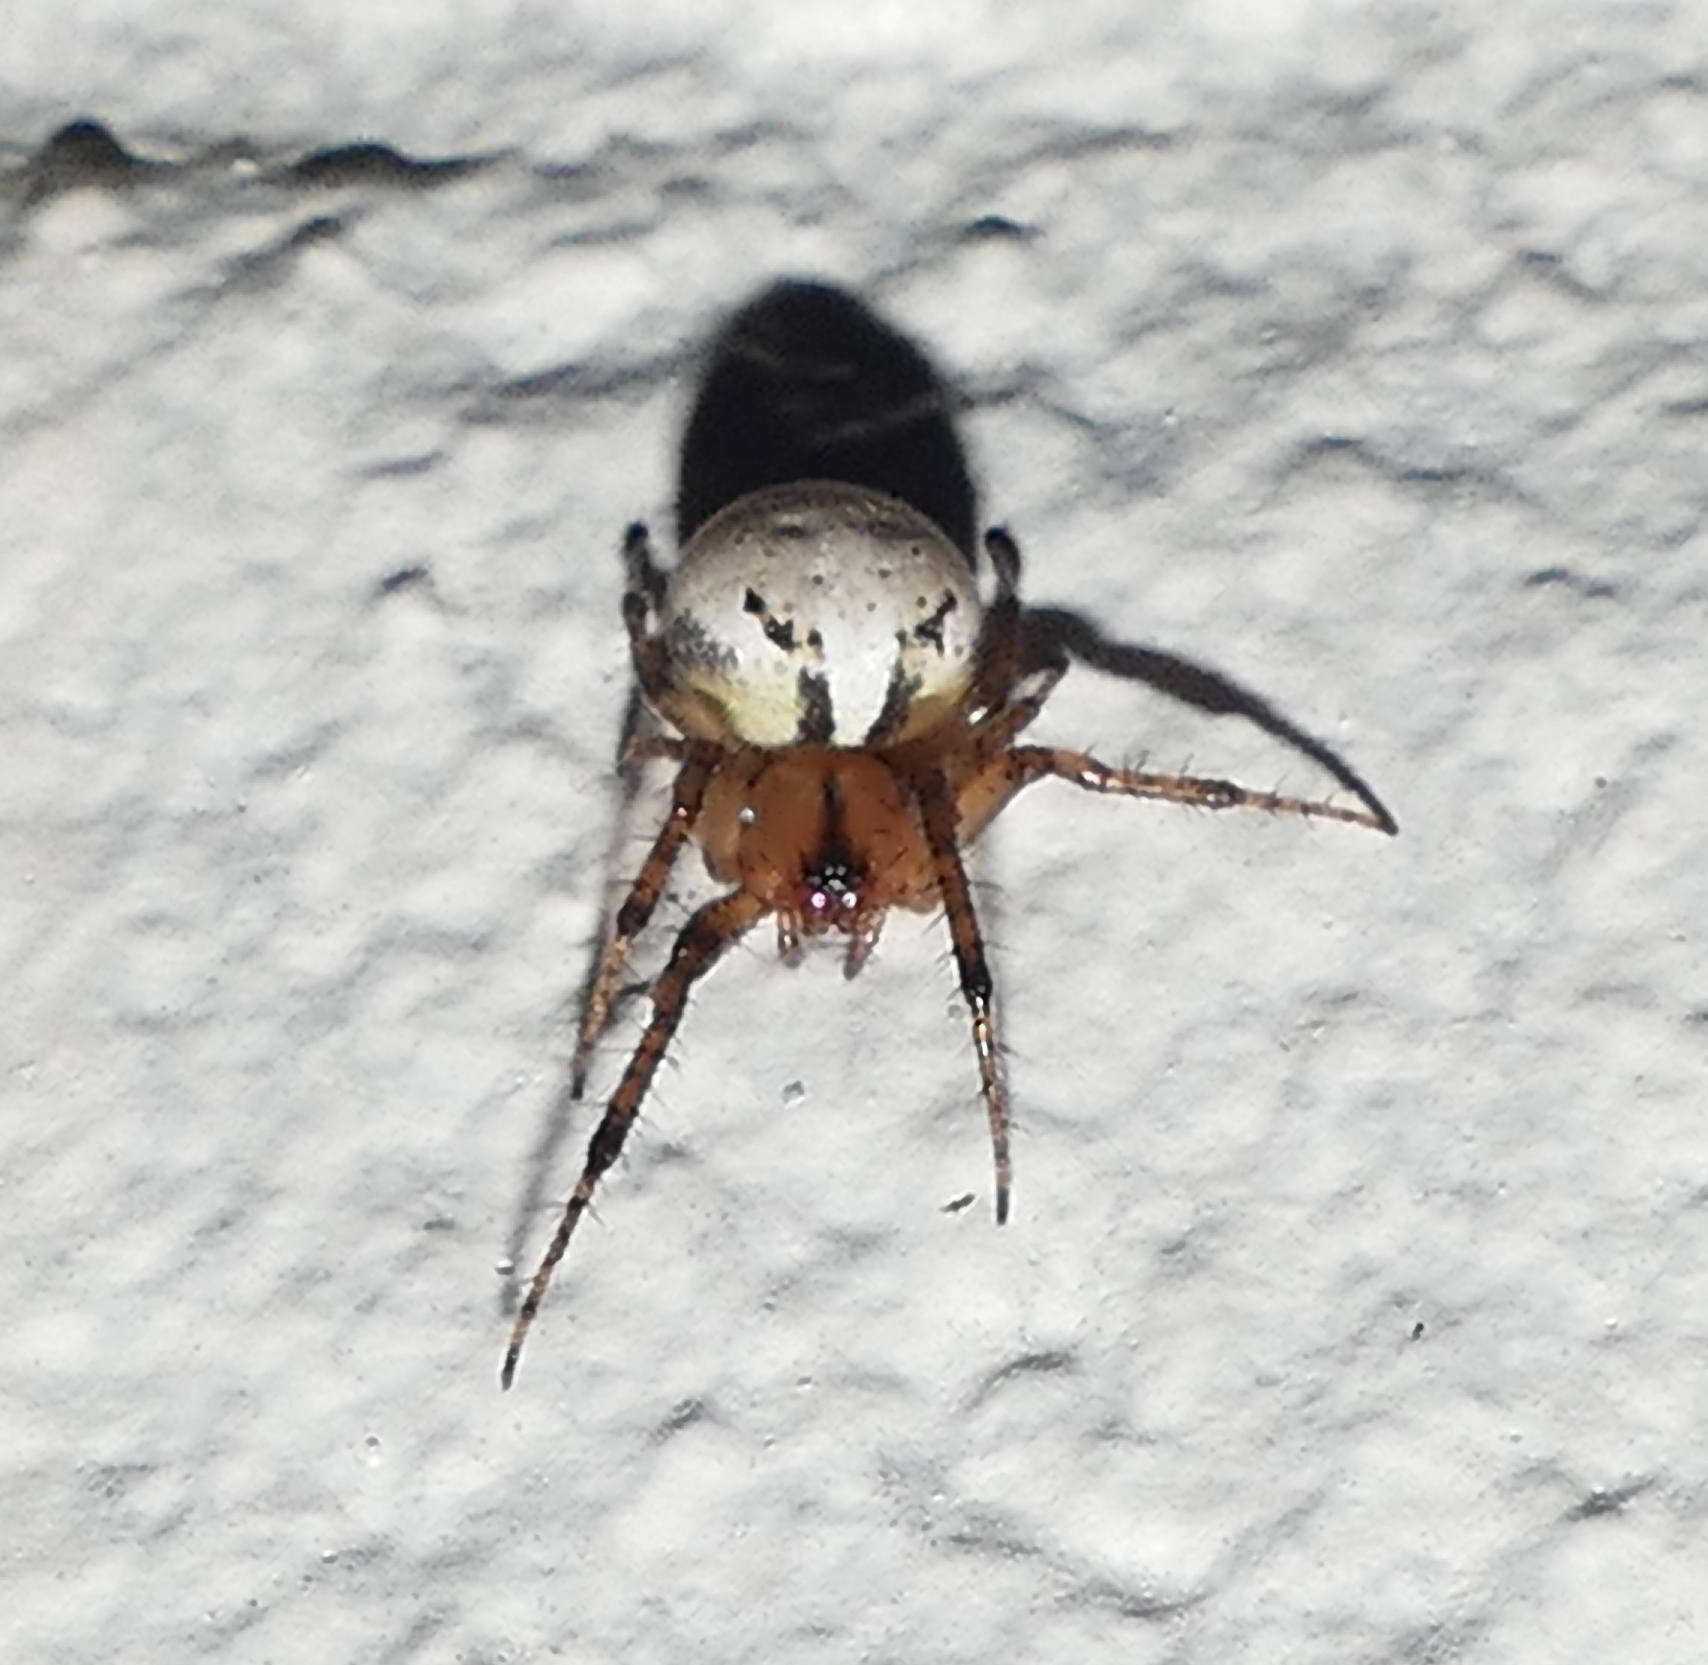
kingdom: Animalia
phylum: Arthropoda
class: Arachnida
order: Araneae
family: Araneidae
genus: Metazygia
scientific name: Metazygia zilloides
